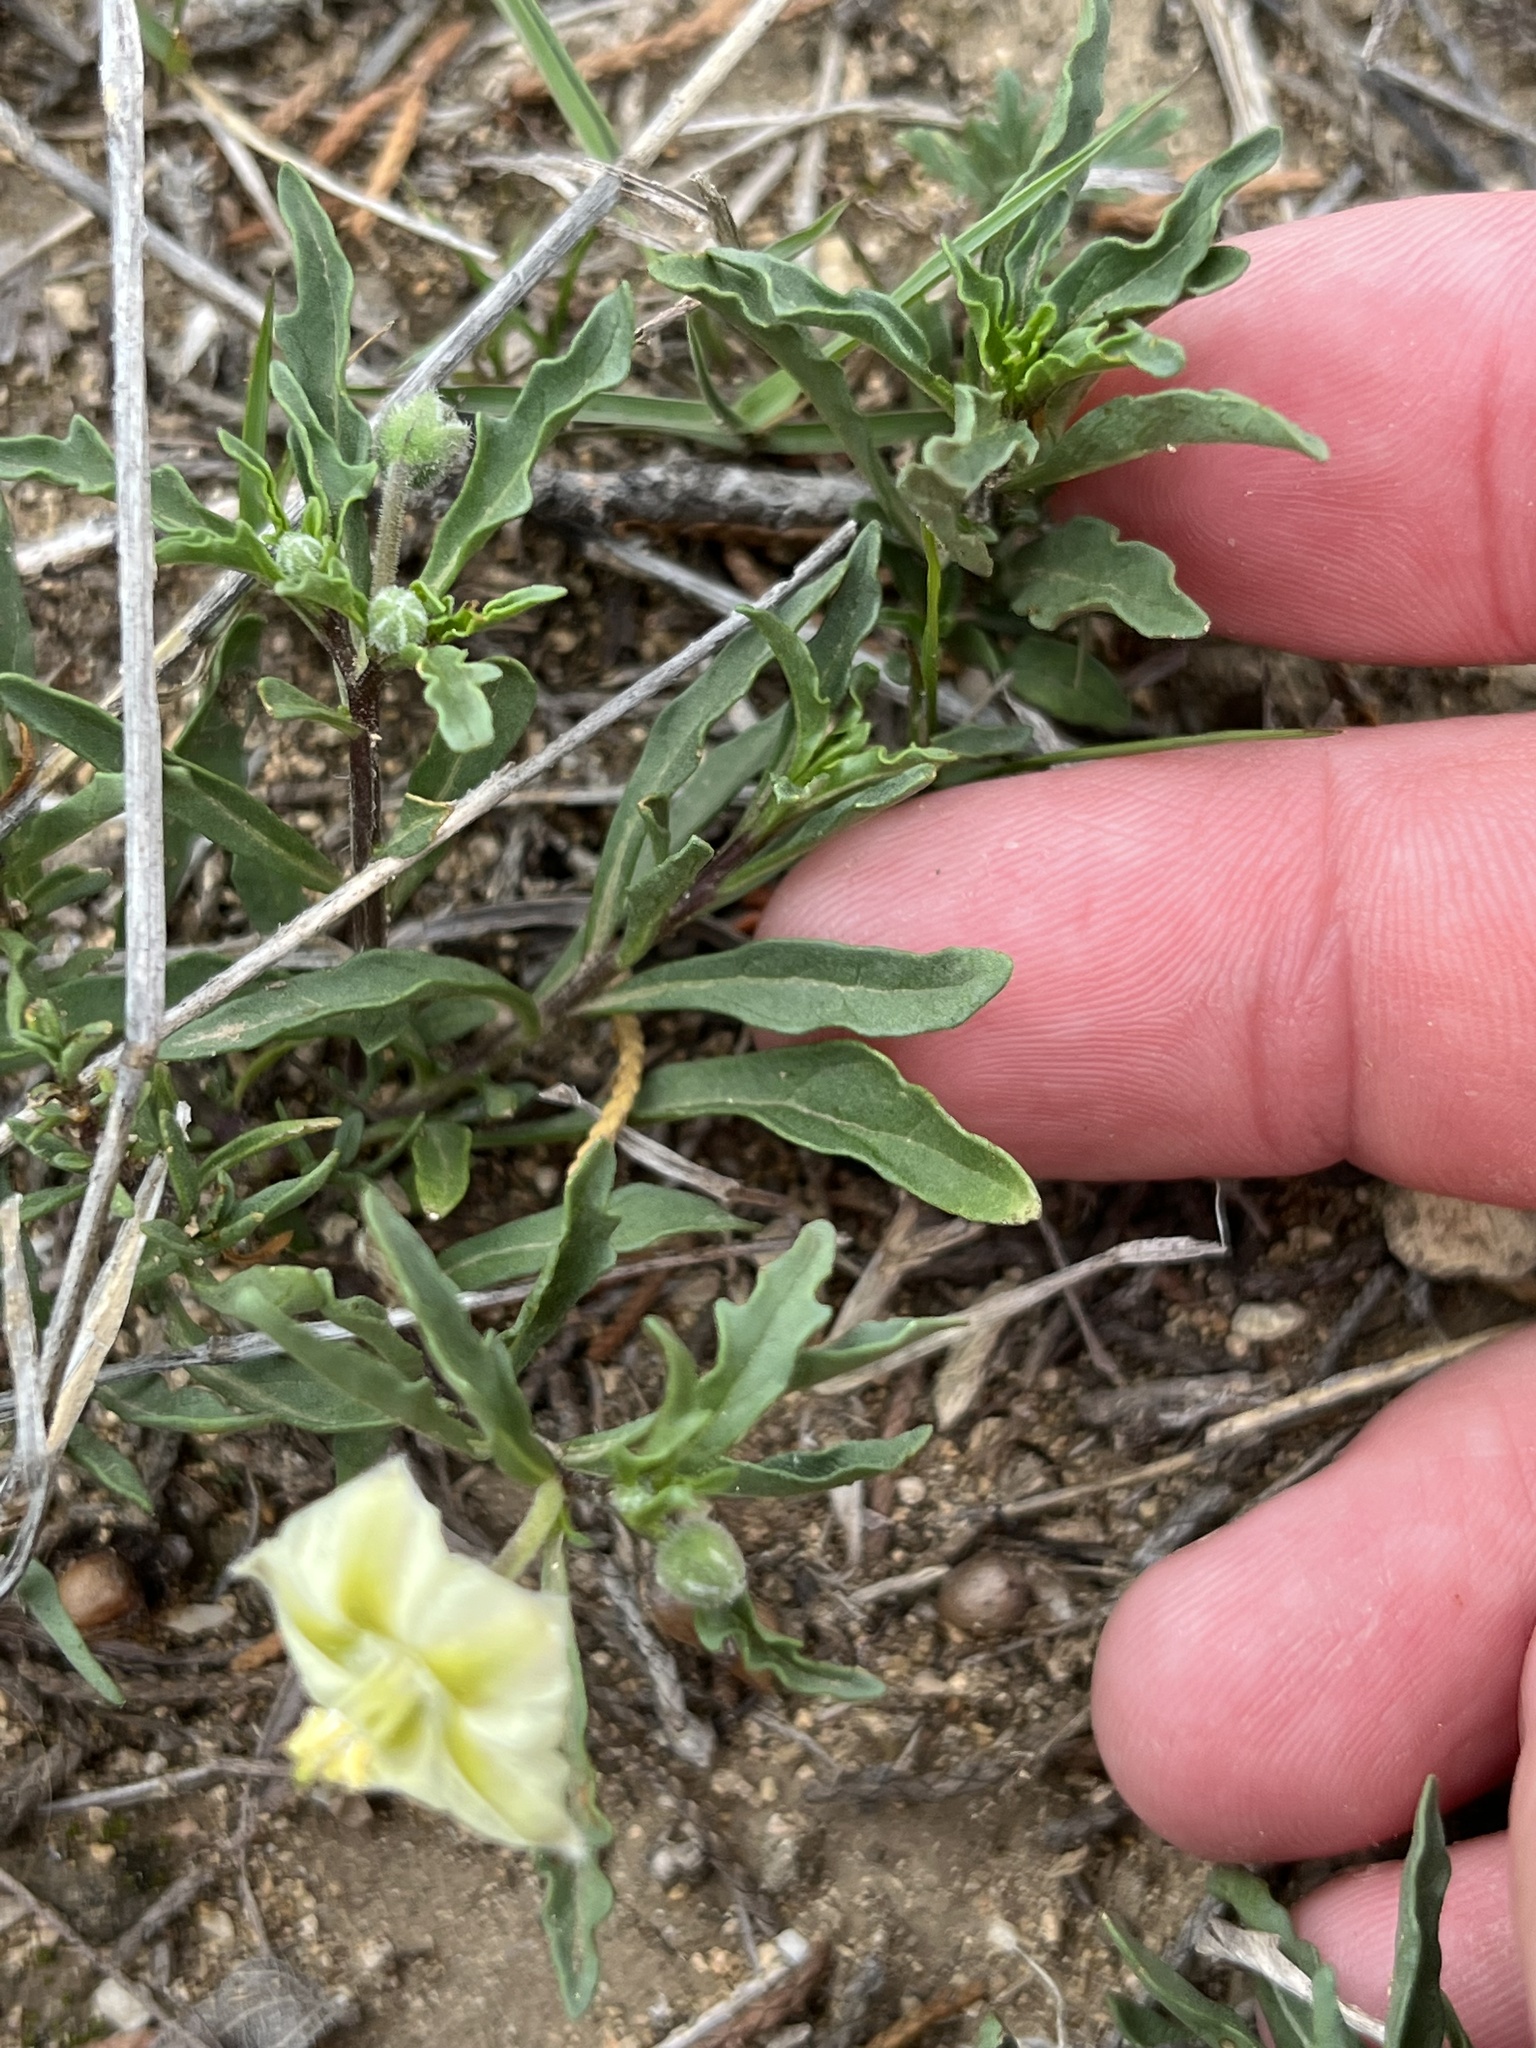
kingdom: Plantae
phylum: Tracheophyta
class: Magnoliopsida
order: Solanales
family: Solanaceae
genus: Chamaesaracha
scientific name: Chamaesaracha edwardsiana
